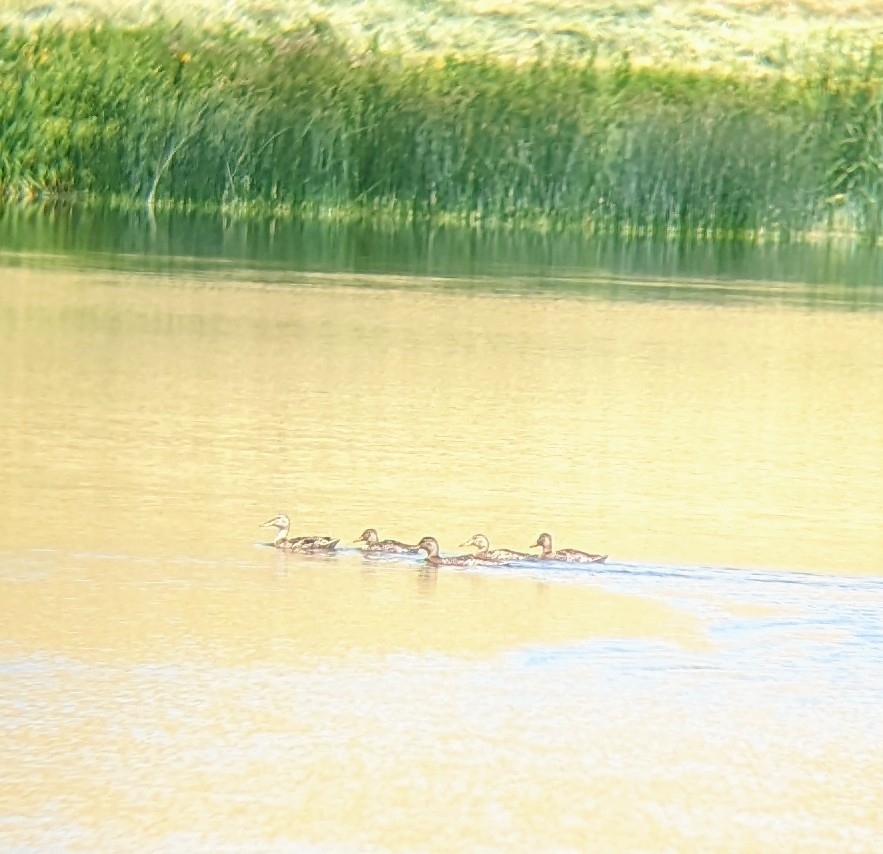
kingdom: Animalia
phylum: Chordata
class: Aves
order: Anseriformes
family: Anatidae
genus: Anas
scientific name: Anas platyrhynchos
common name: Mallard
